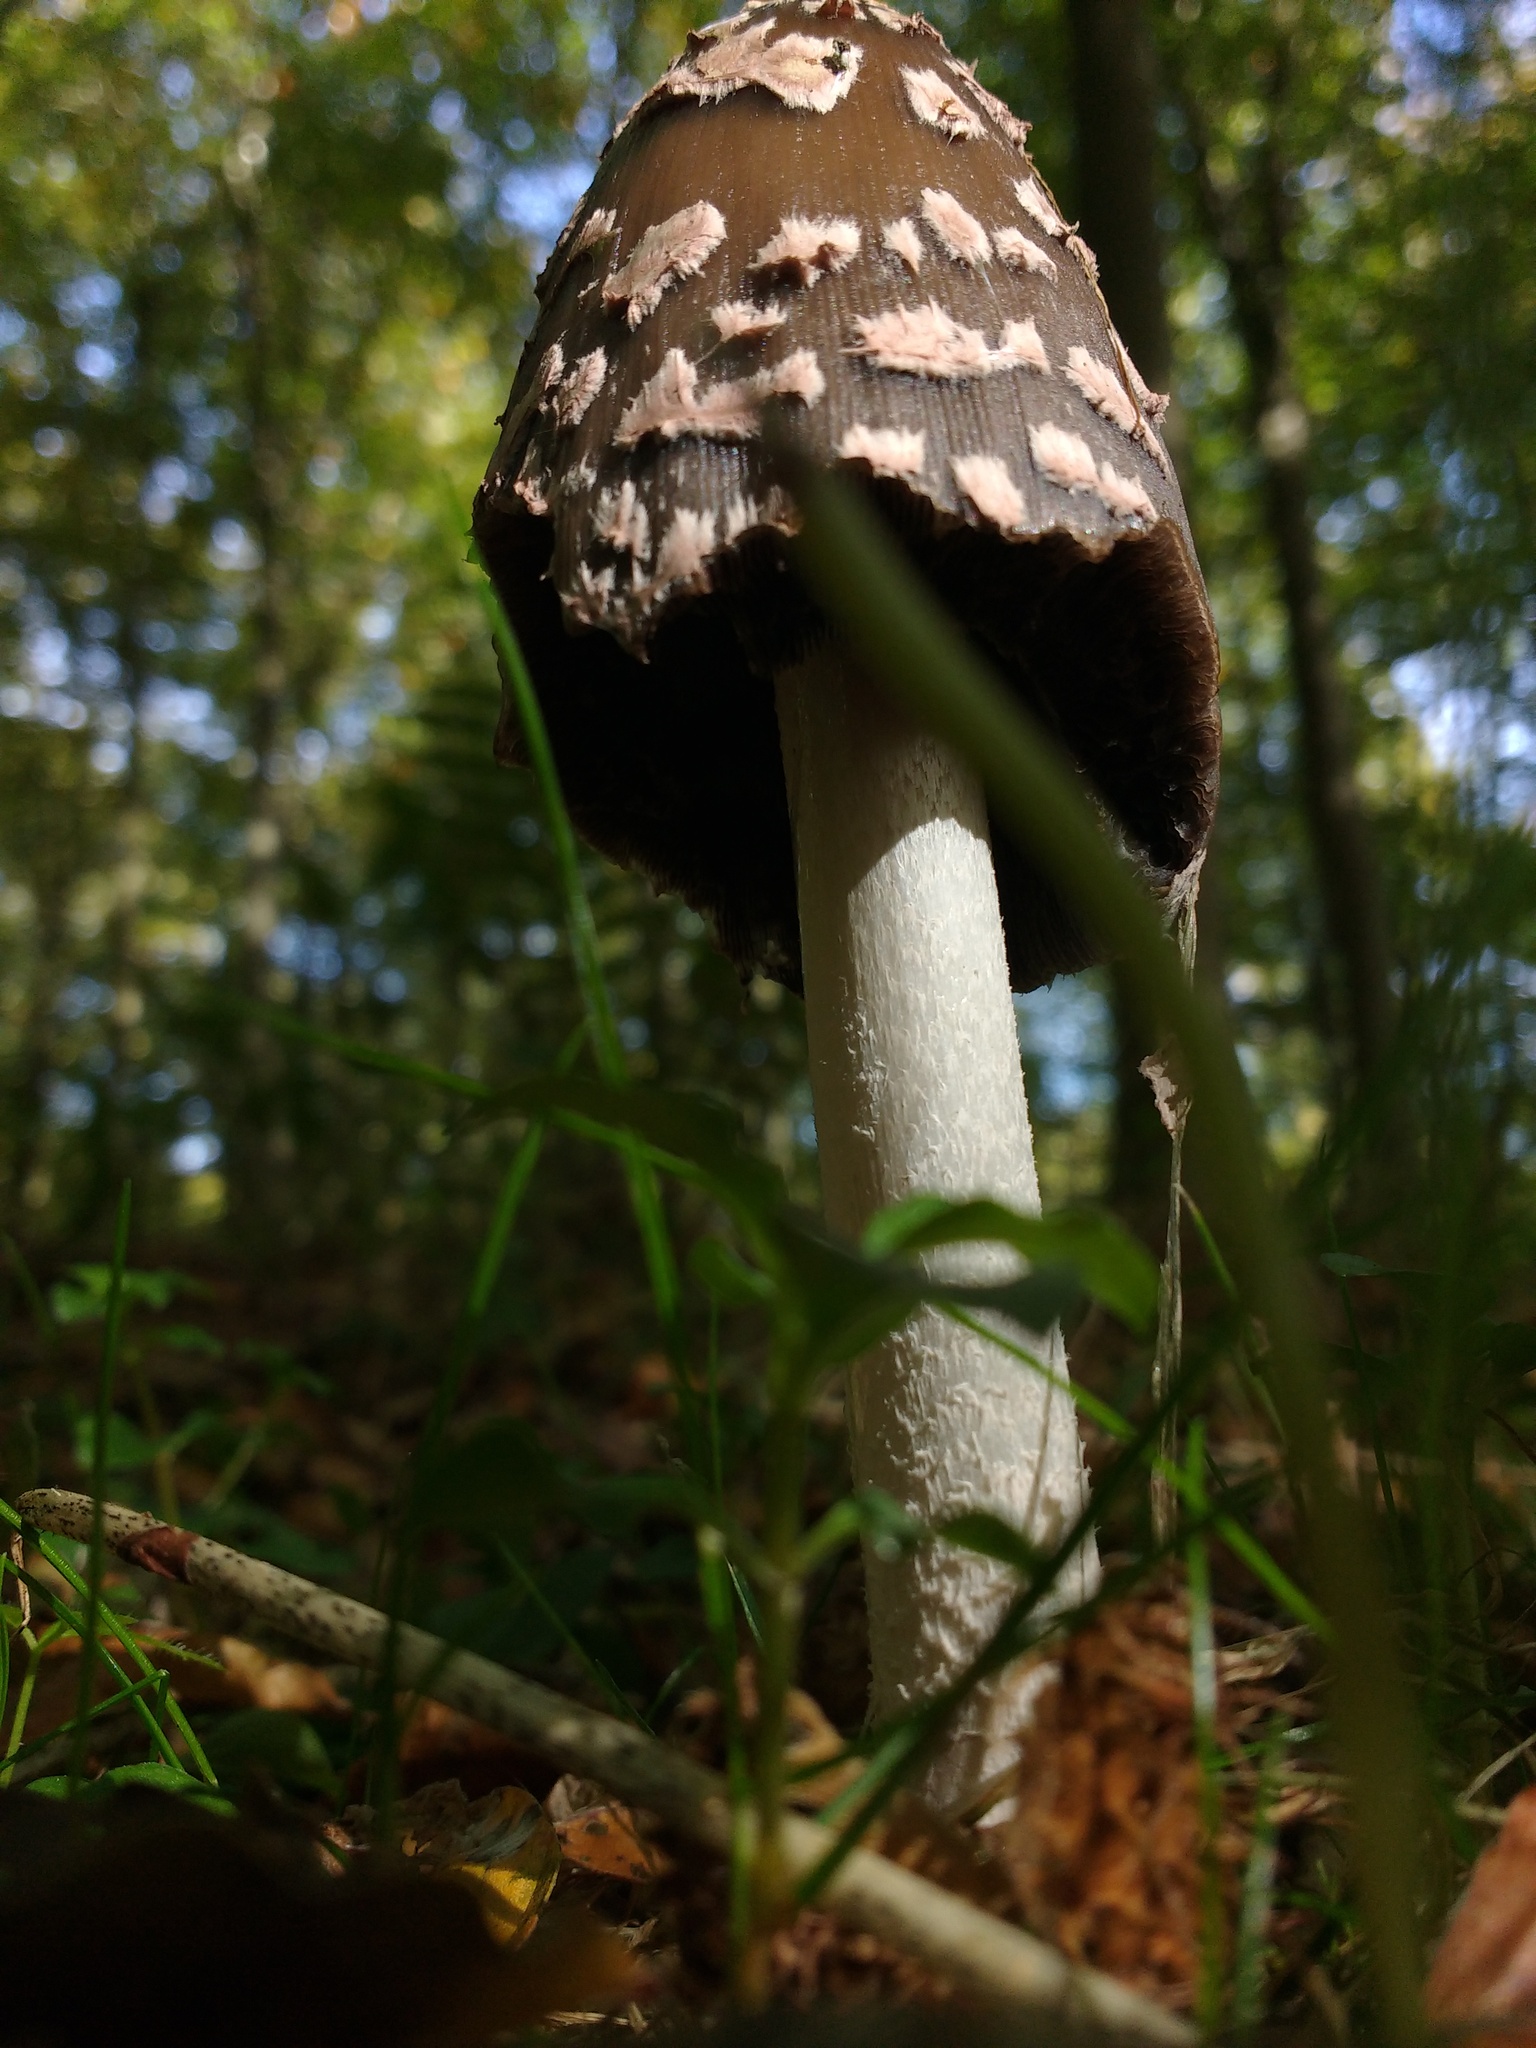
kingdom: Fungi
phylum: Basidiomycota
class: Agaricomycetes
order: Agaricales
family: Psathyrellaceae
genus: Coprinopsis
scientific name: Coprinopsis picacea
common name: Magpie inkcap
